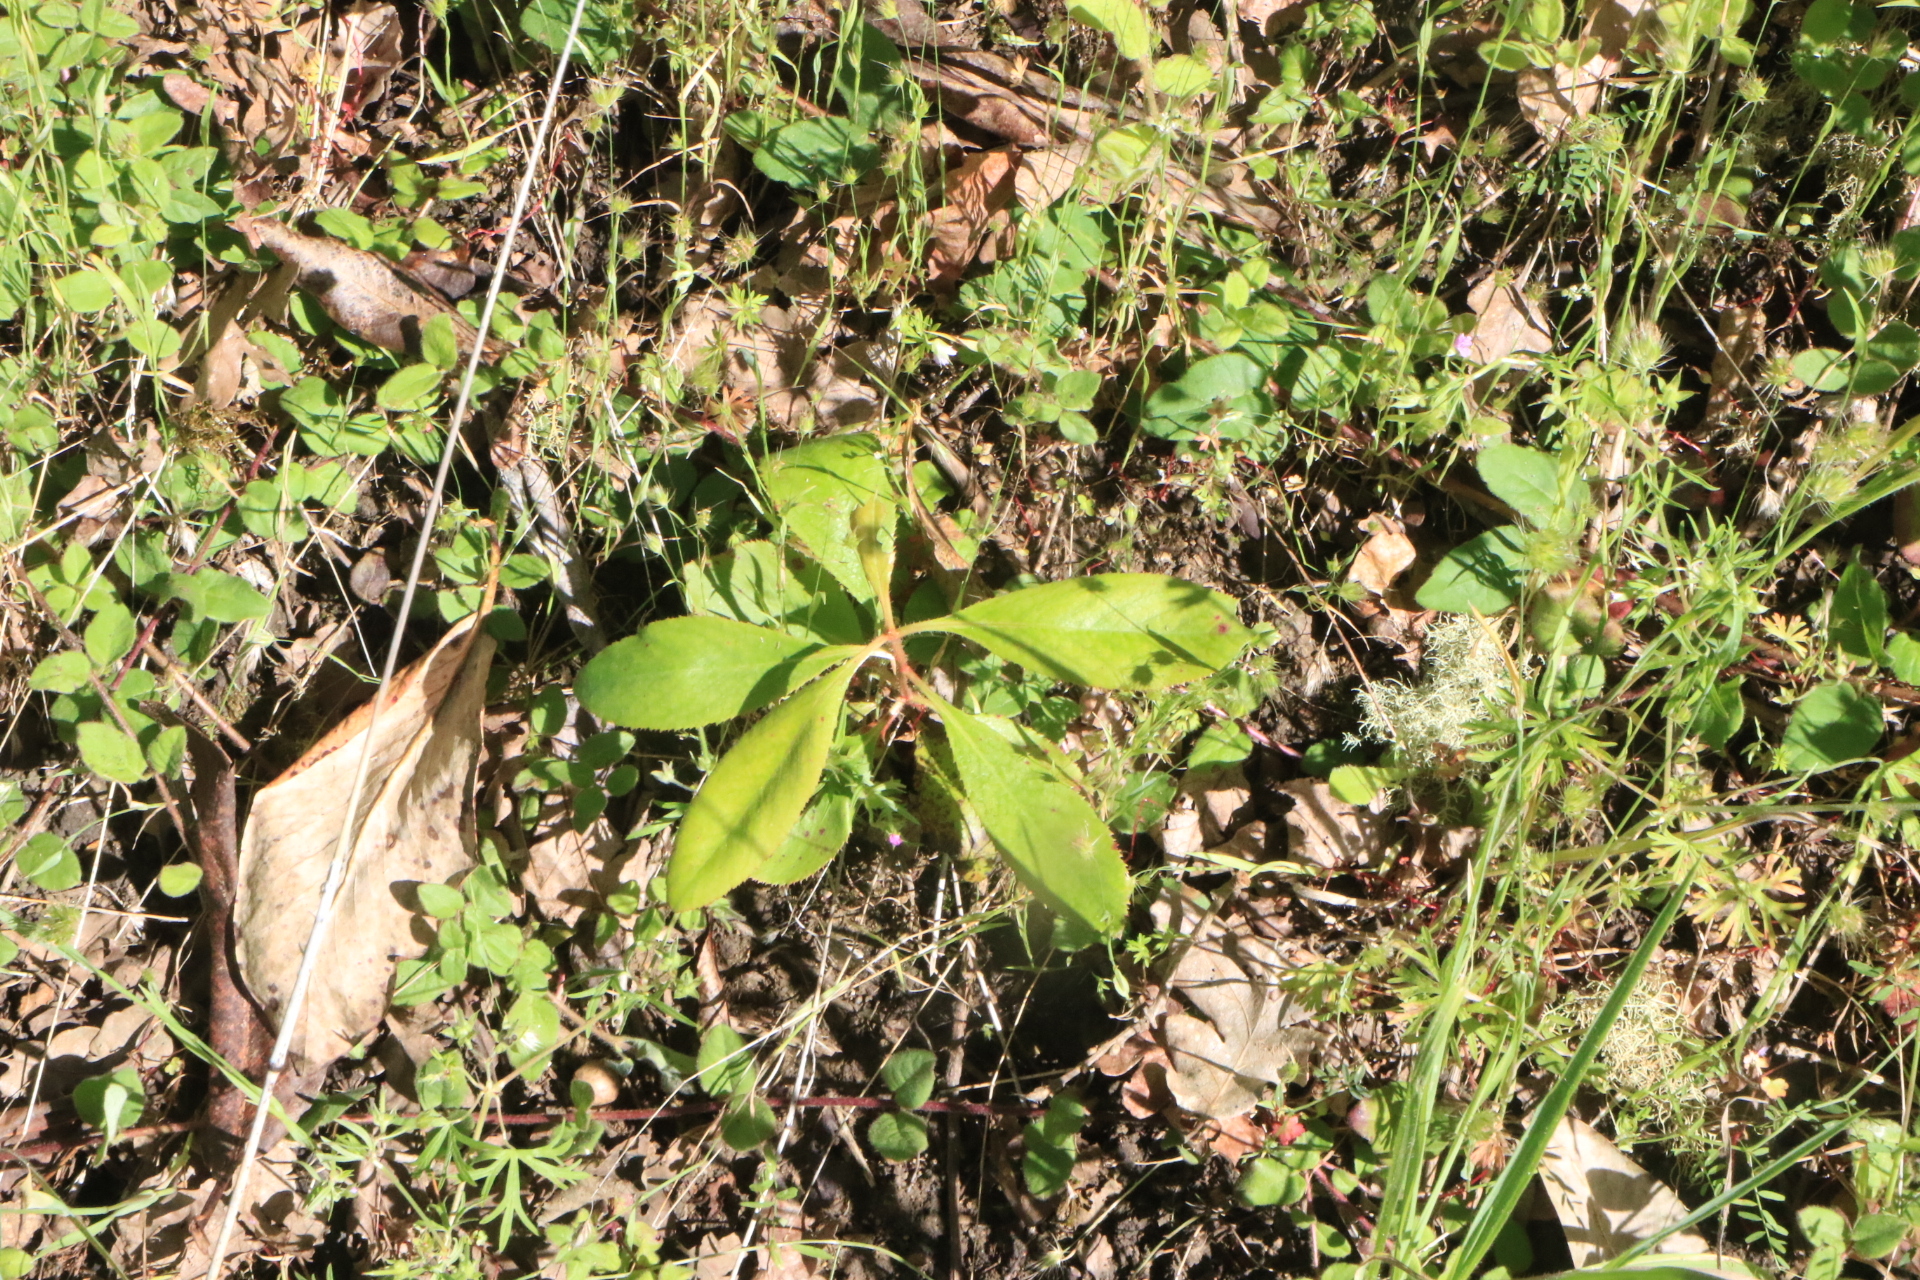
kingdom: Plantae
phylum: Tracheophyta
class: Magnoliopsida
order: Ericales
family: Ericaceae
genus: Arbutus
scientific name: Arbutus menziesii
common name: Pacific madrone
